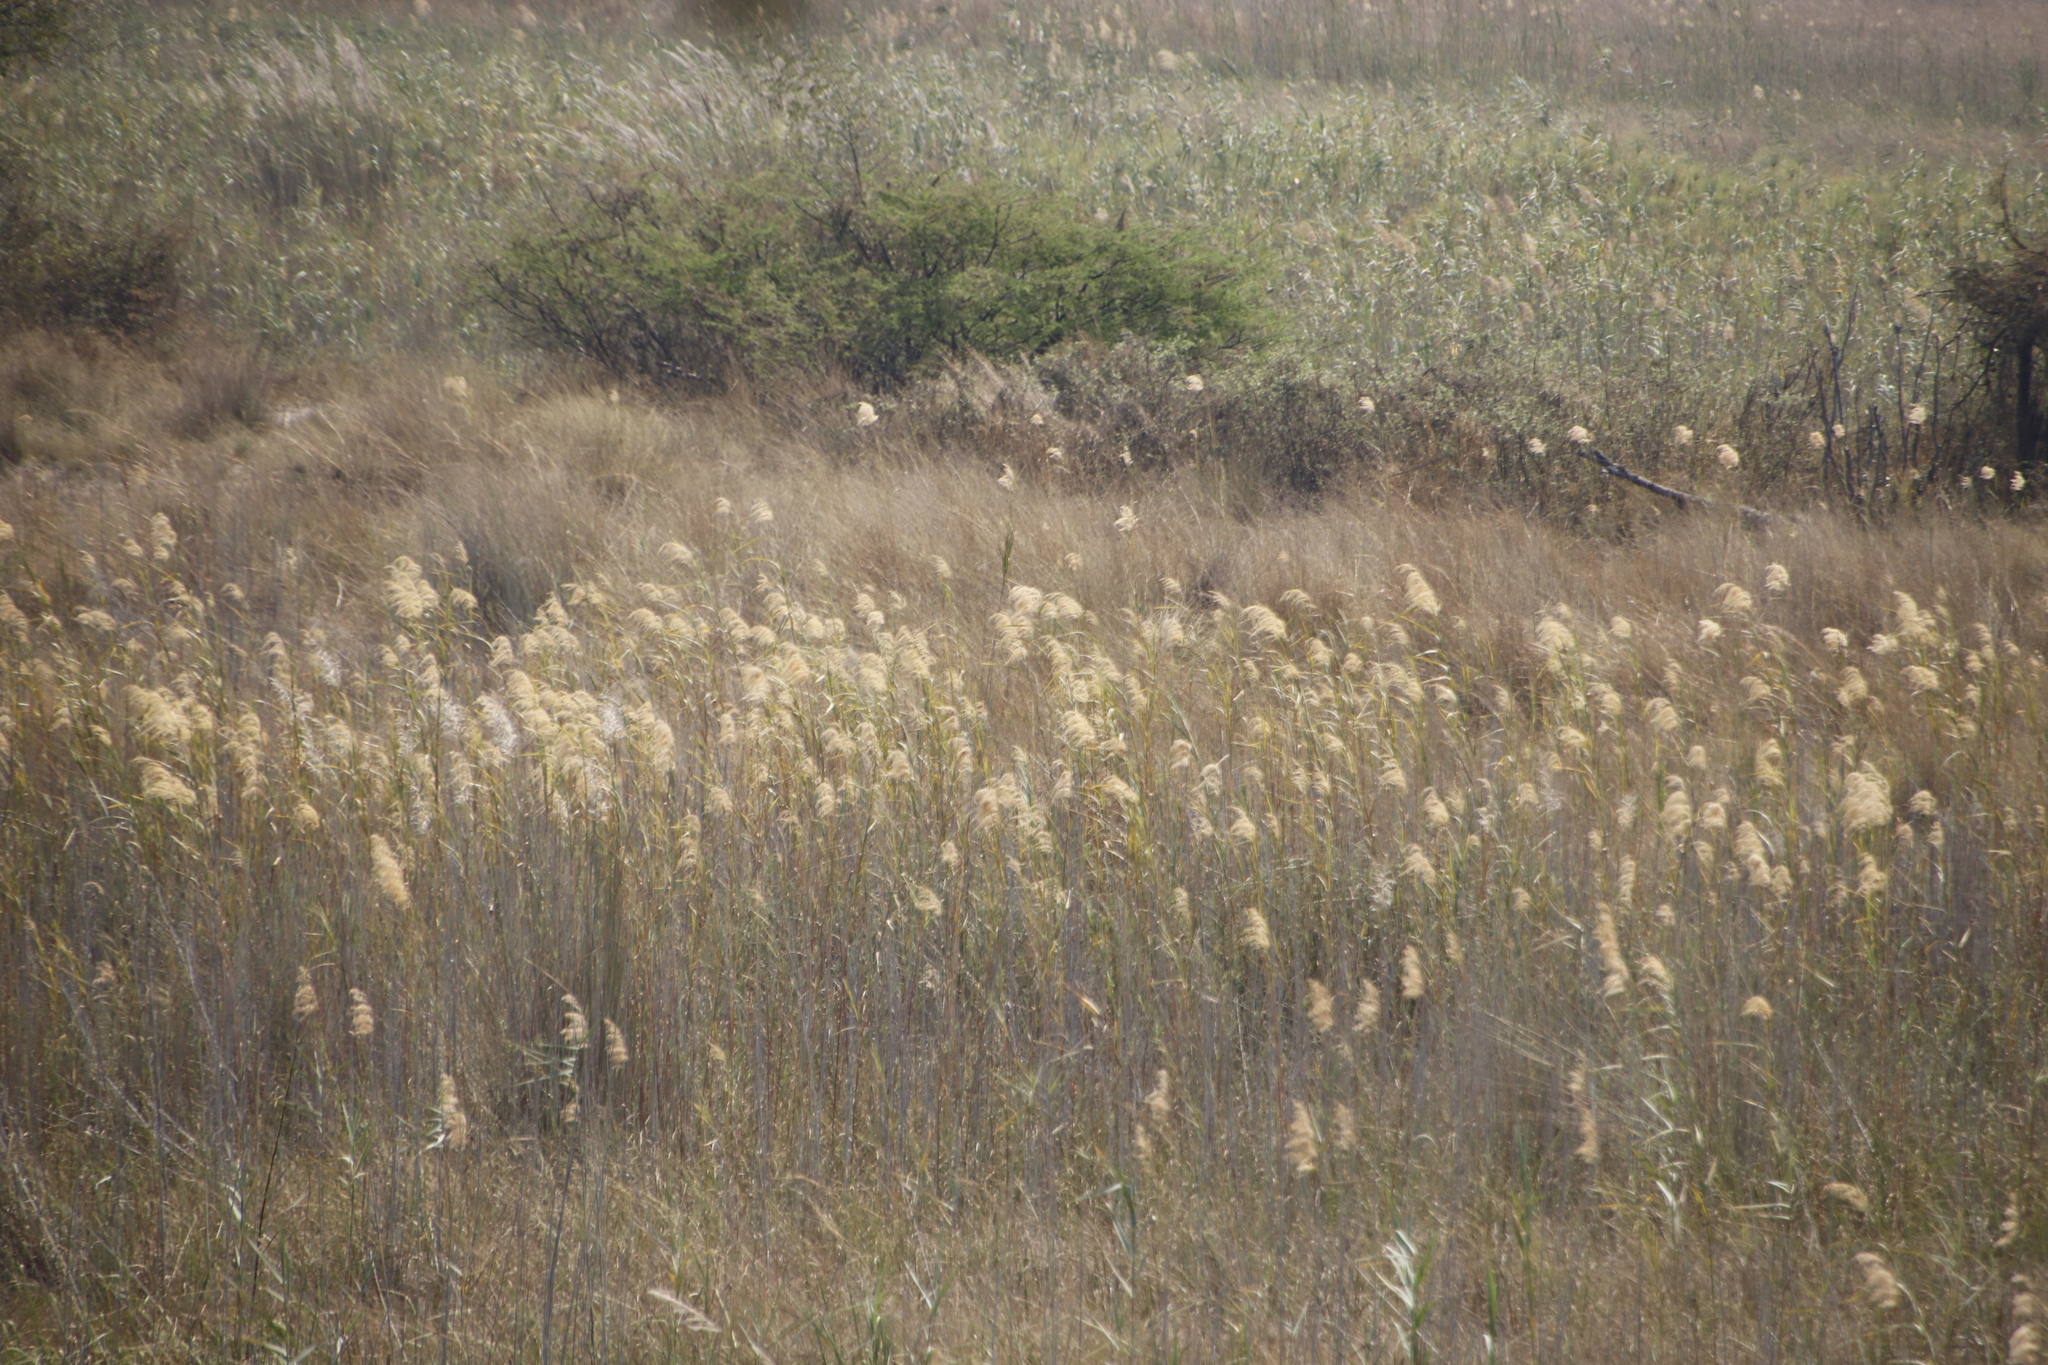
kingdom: Plantae
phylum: Tracheophyta
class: Liliopsida
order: Poales
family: Poaceae
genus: Phragmites
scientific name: Phragmites australis
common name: Common reed
